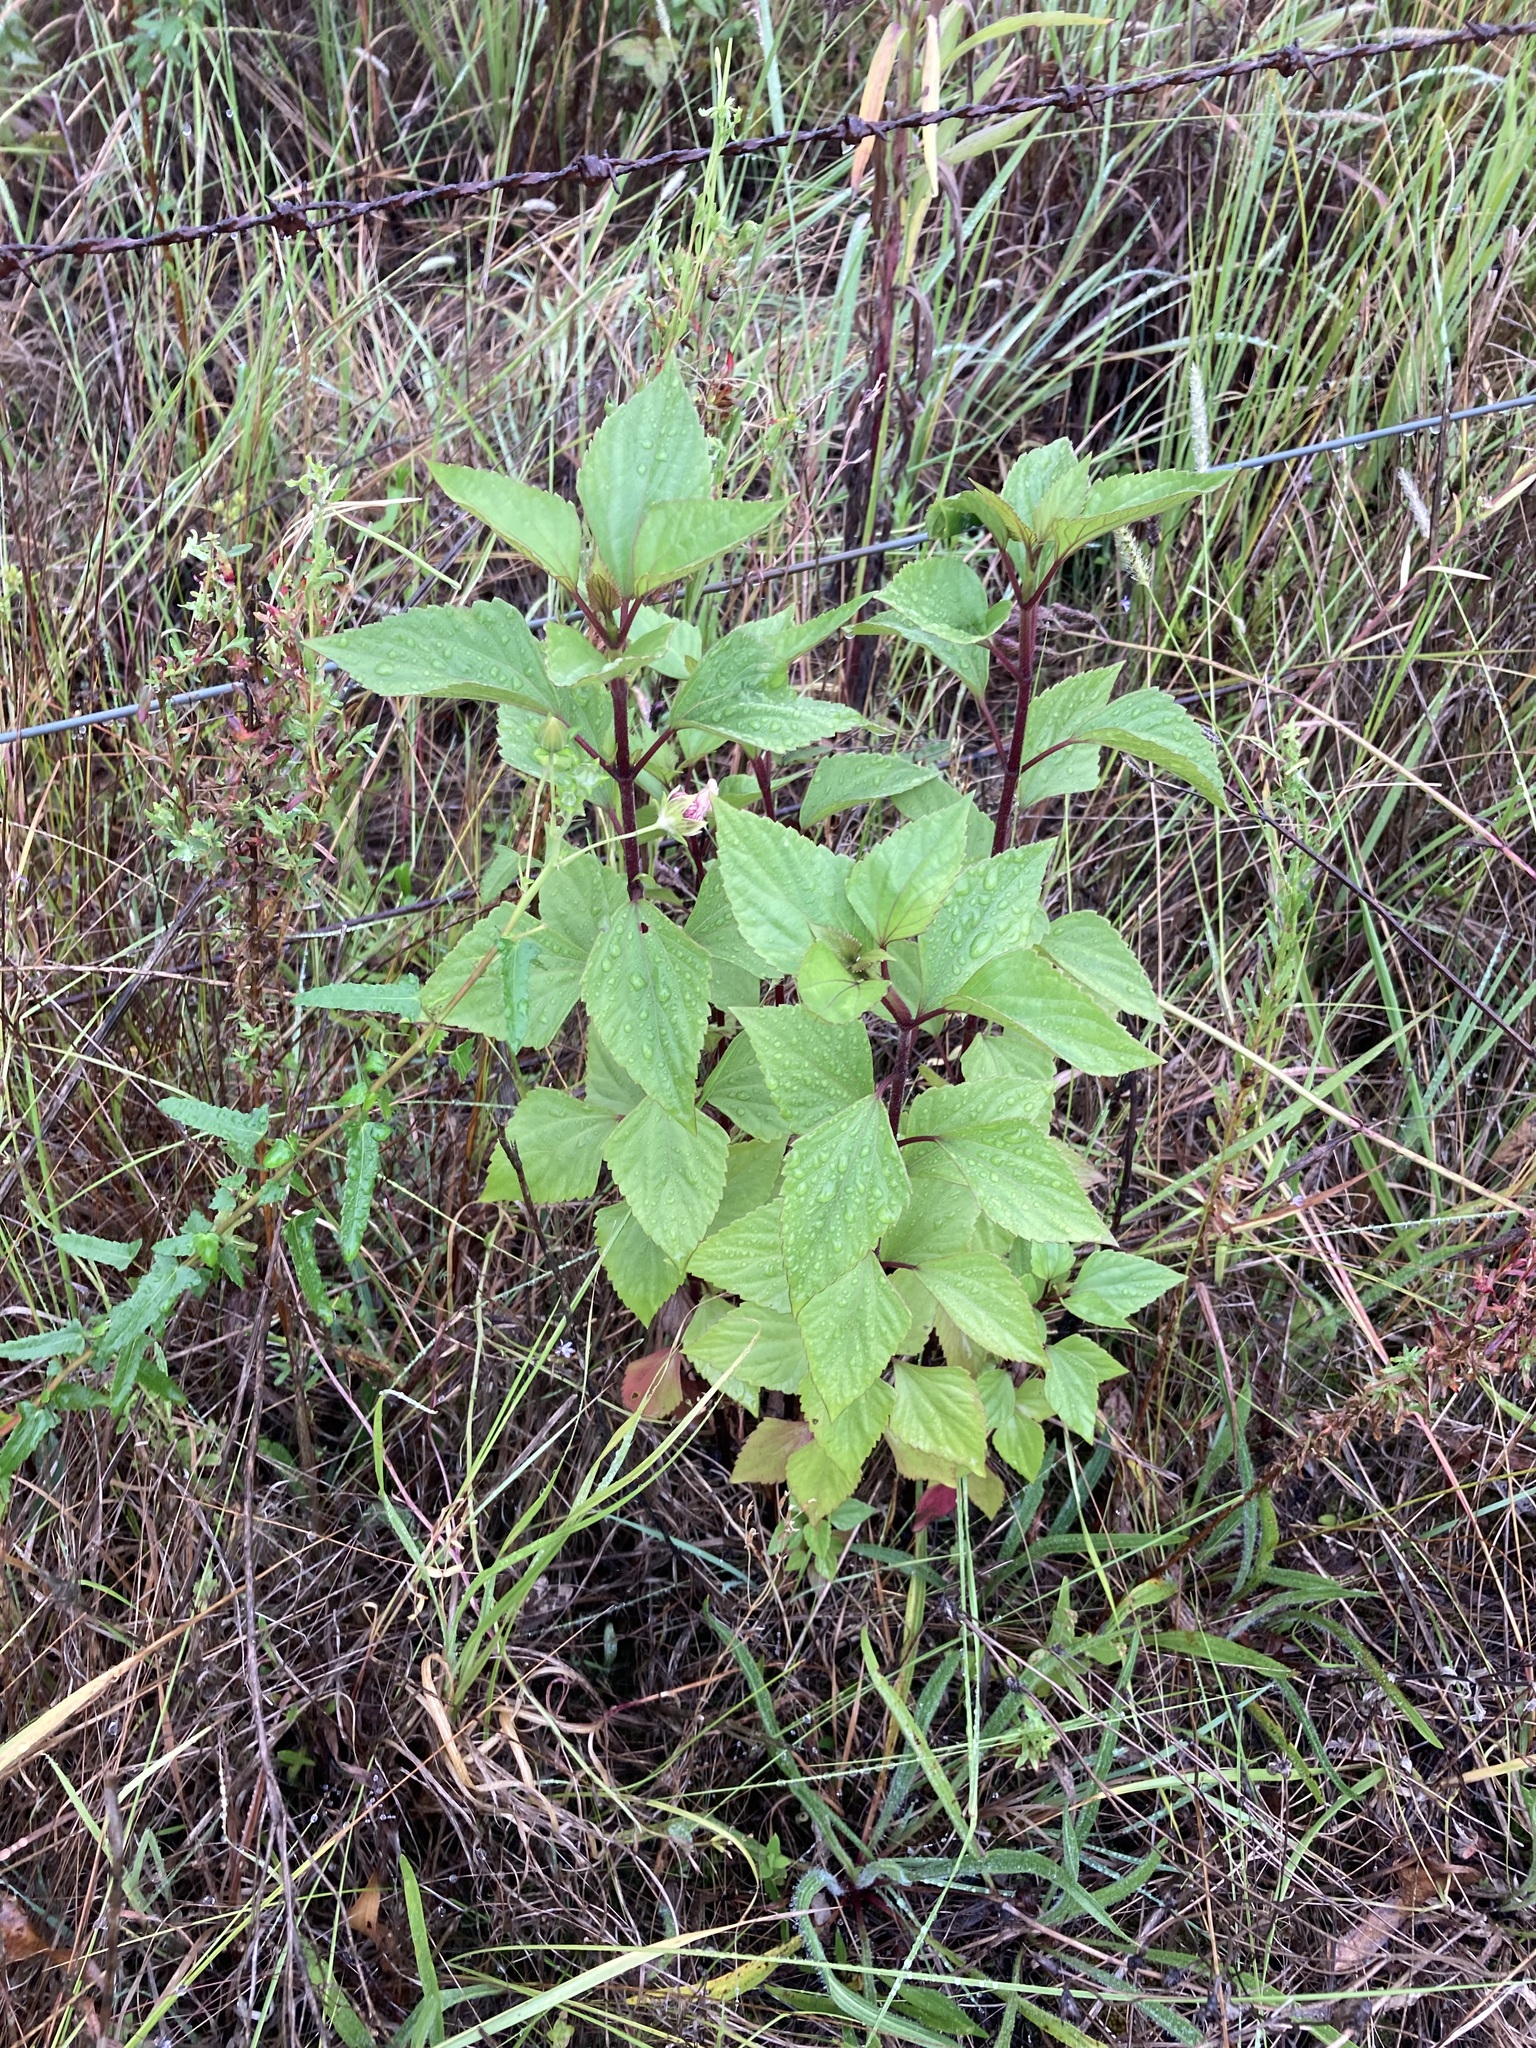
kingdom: Plantae
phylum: Tracheophyta
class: Magnoliopsida
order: Asterales
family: Asteraceae
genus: Ageratina
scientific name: Ageratina adenophora
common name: Sticky snakeroot
